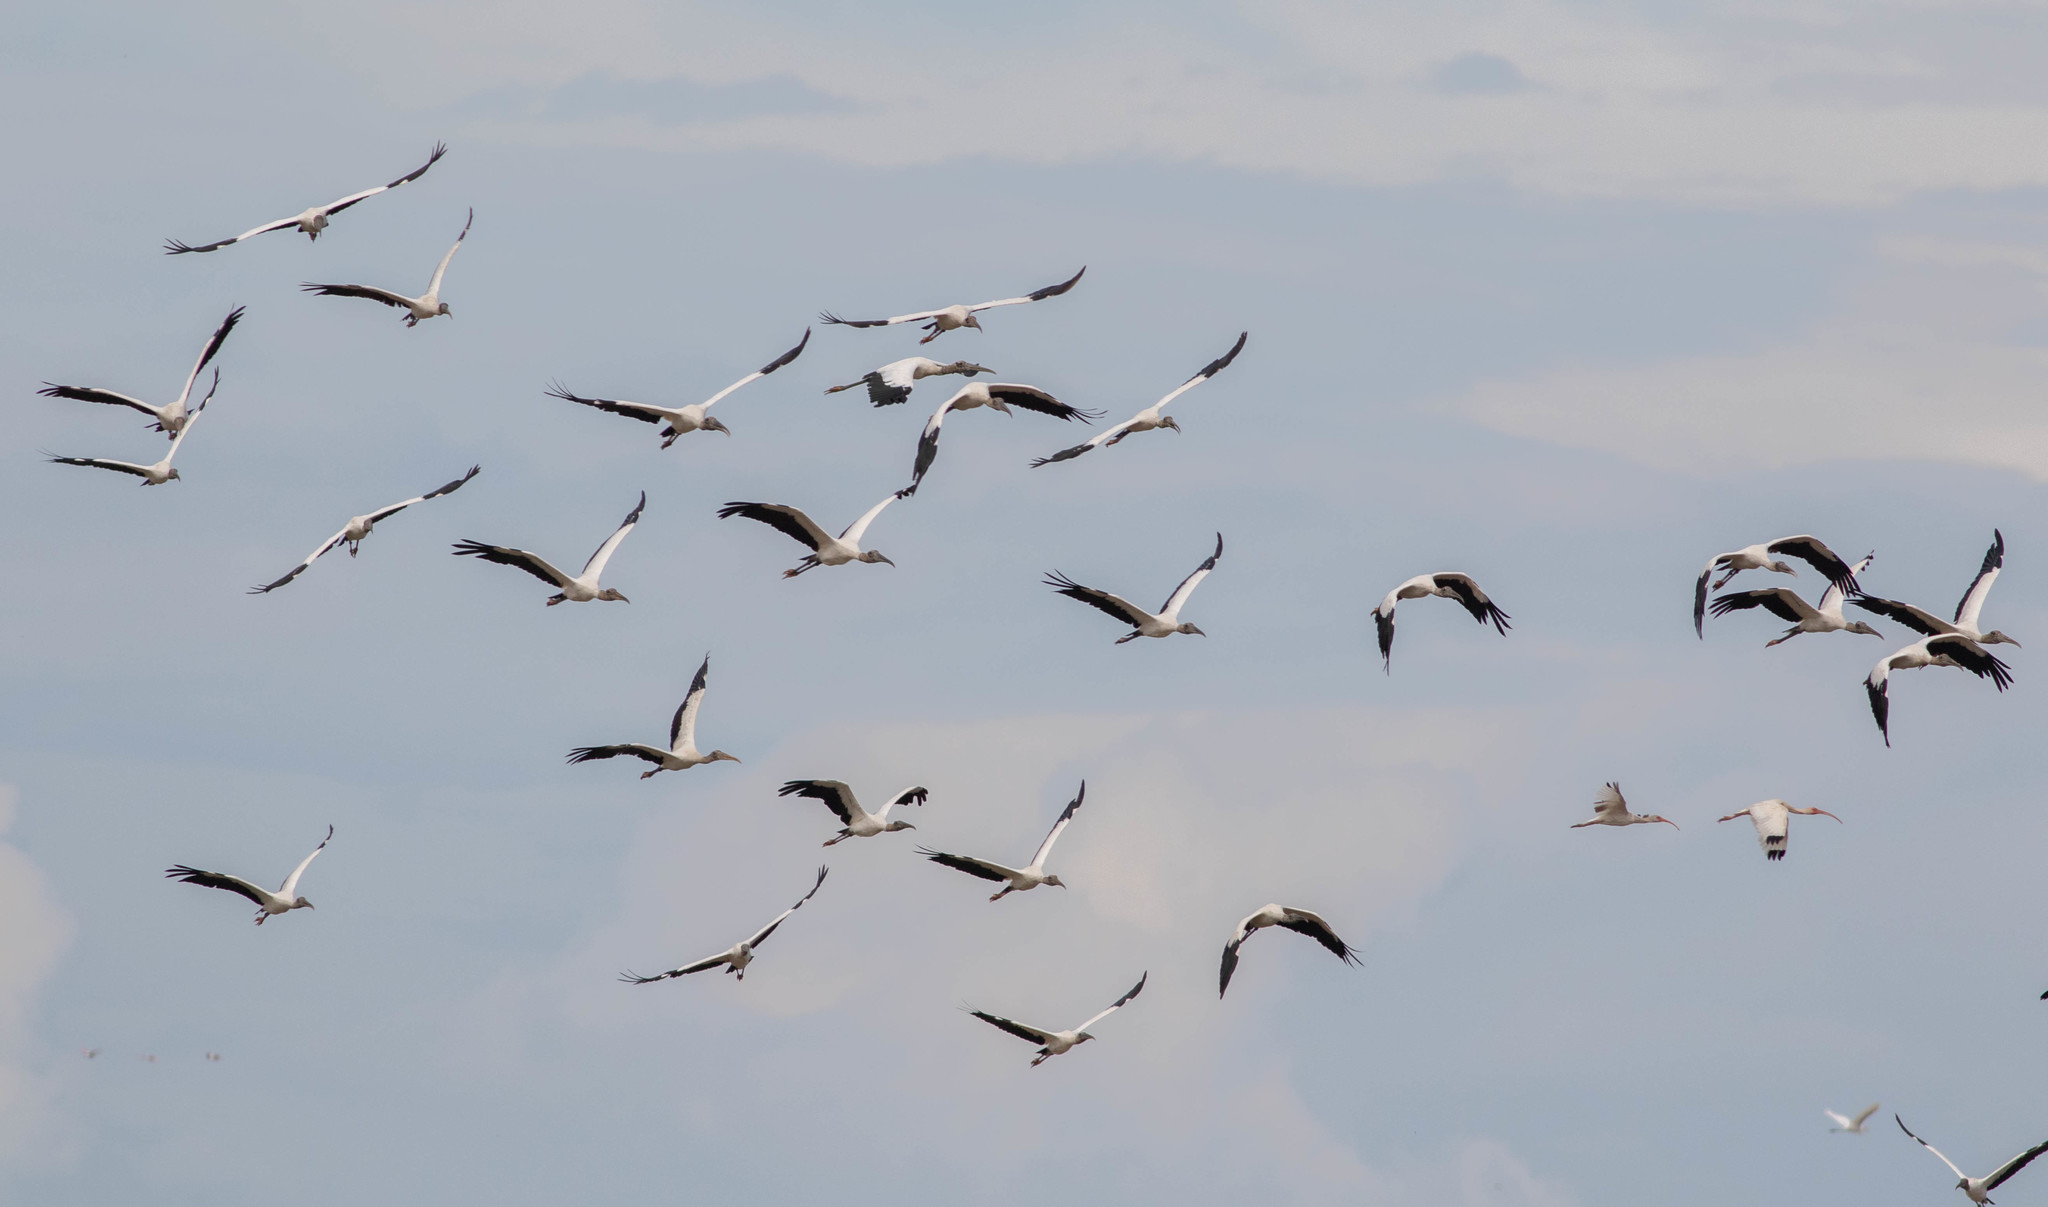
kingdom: Animalia
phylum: Chordata
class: Aves
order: Ciconiiformes
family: Ciconiidae
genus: Mycteria
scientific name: Mycteria americana
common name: Wood stork
